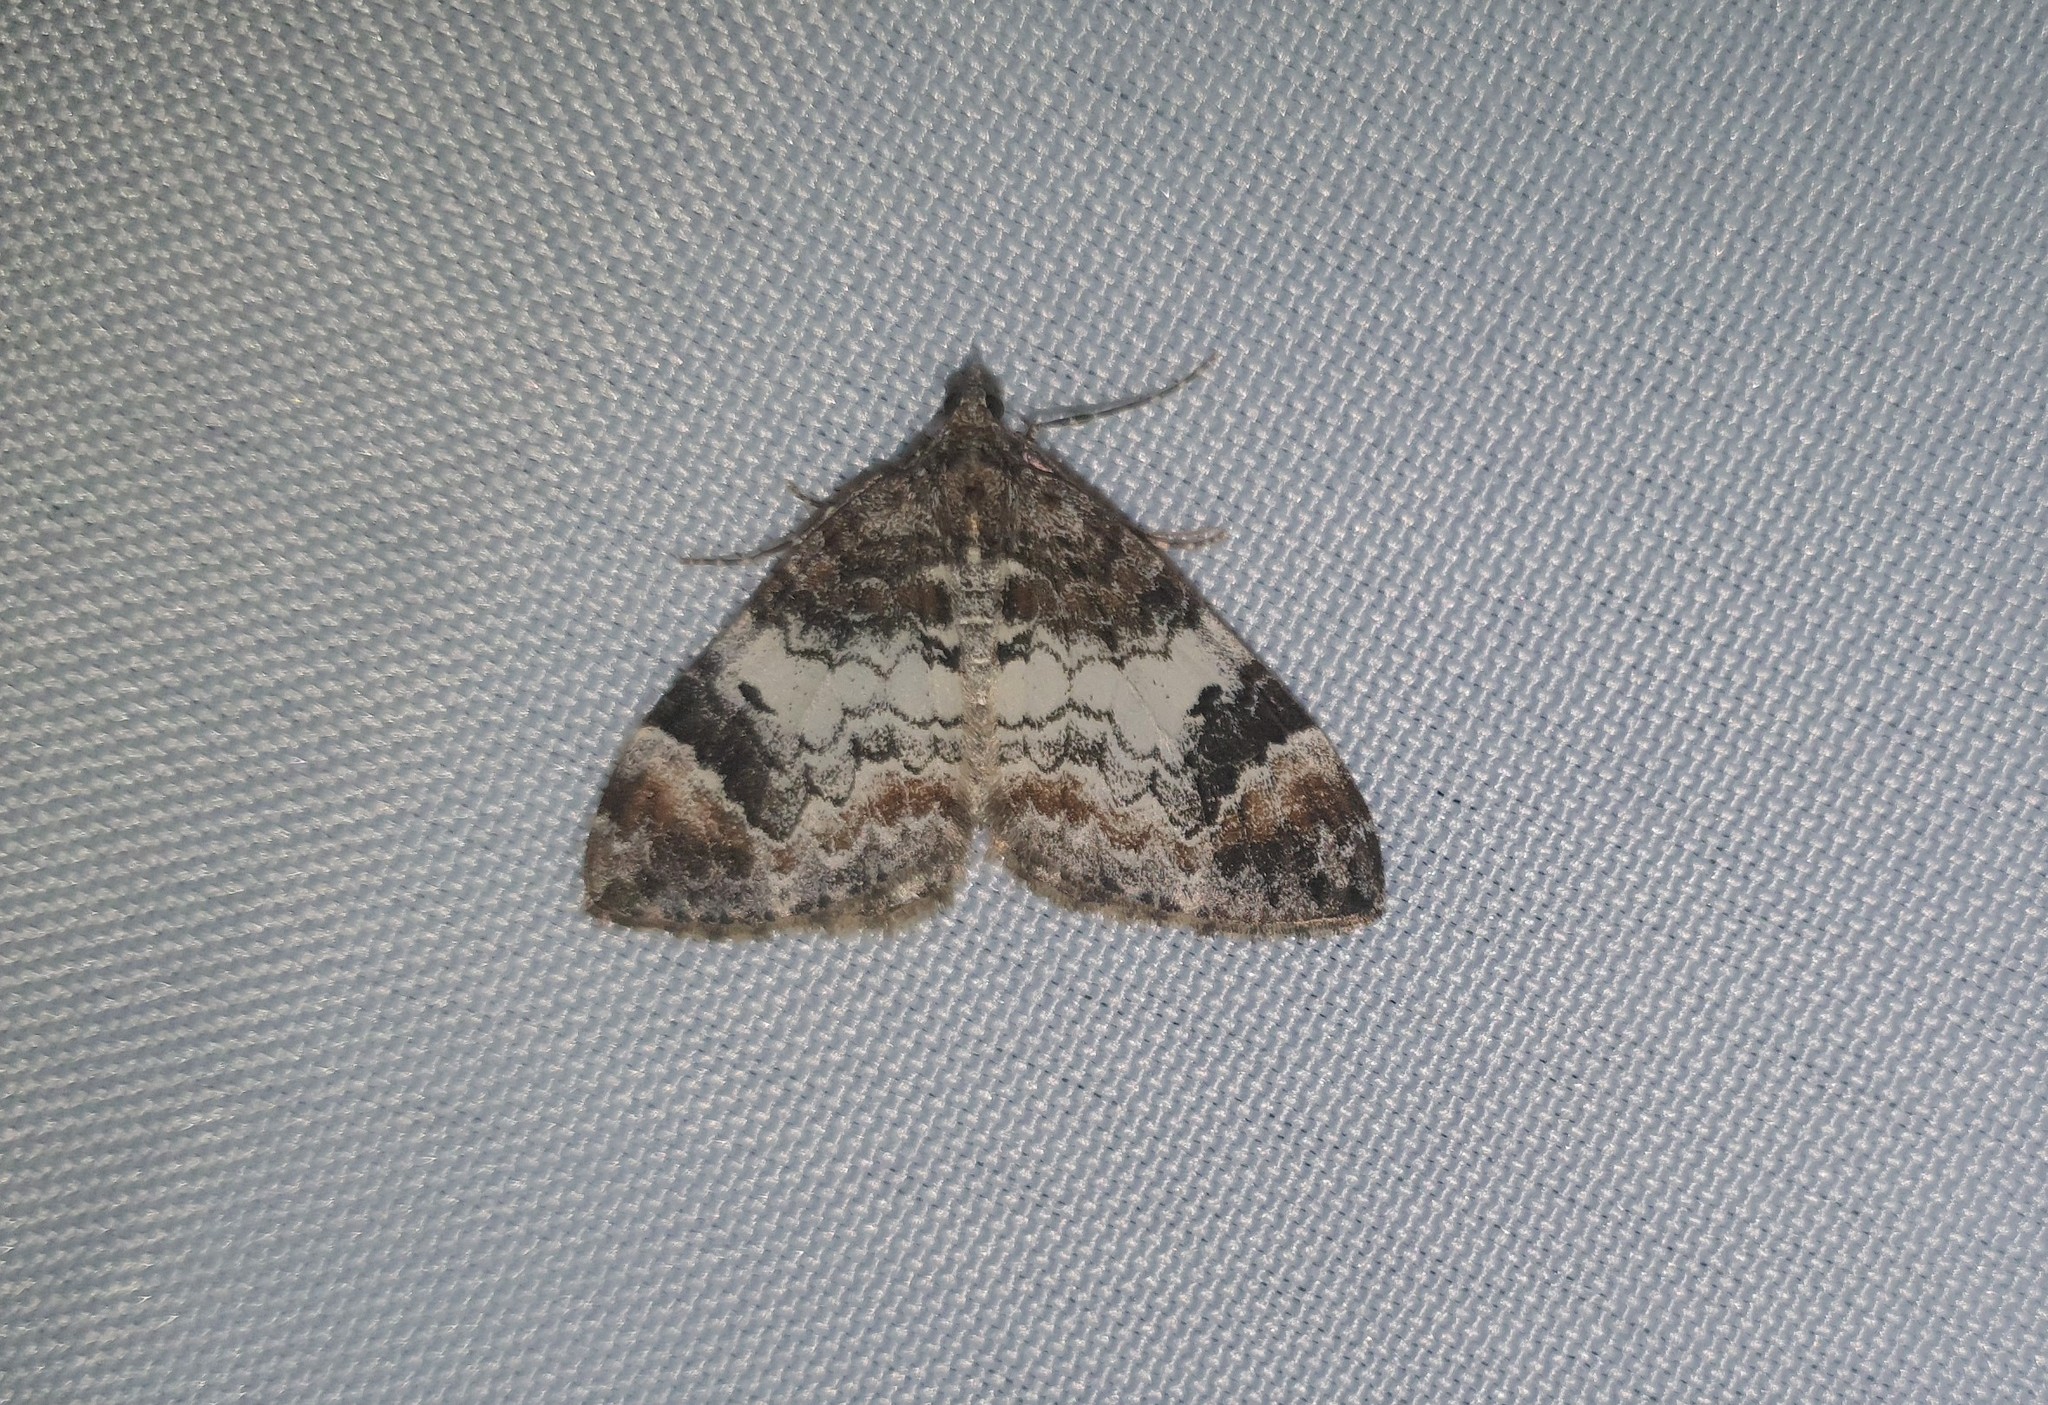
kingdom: Animalia
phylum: Arthropoda
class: Insecta
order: Lepidoptera
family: Geometridae
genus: Dysstroma
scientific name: Dysstroma truncata
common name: Common marbled carpet
